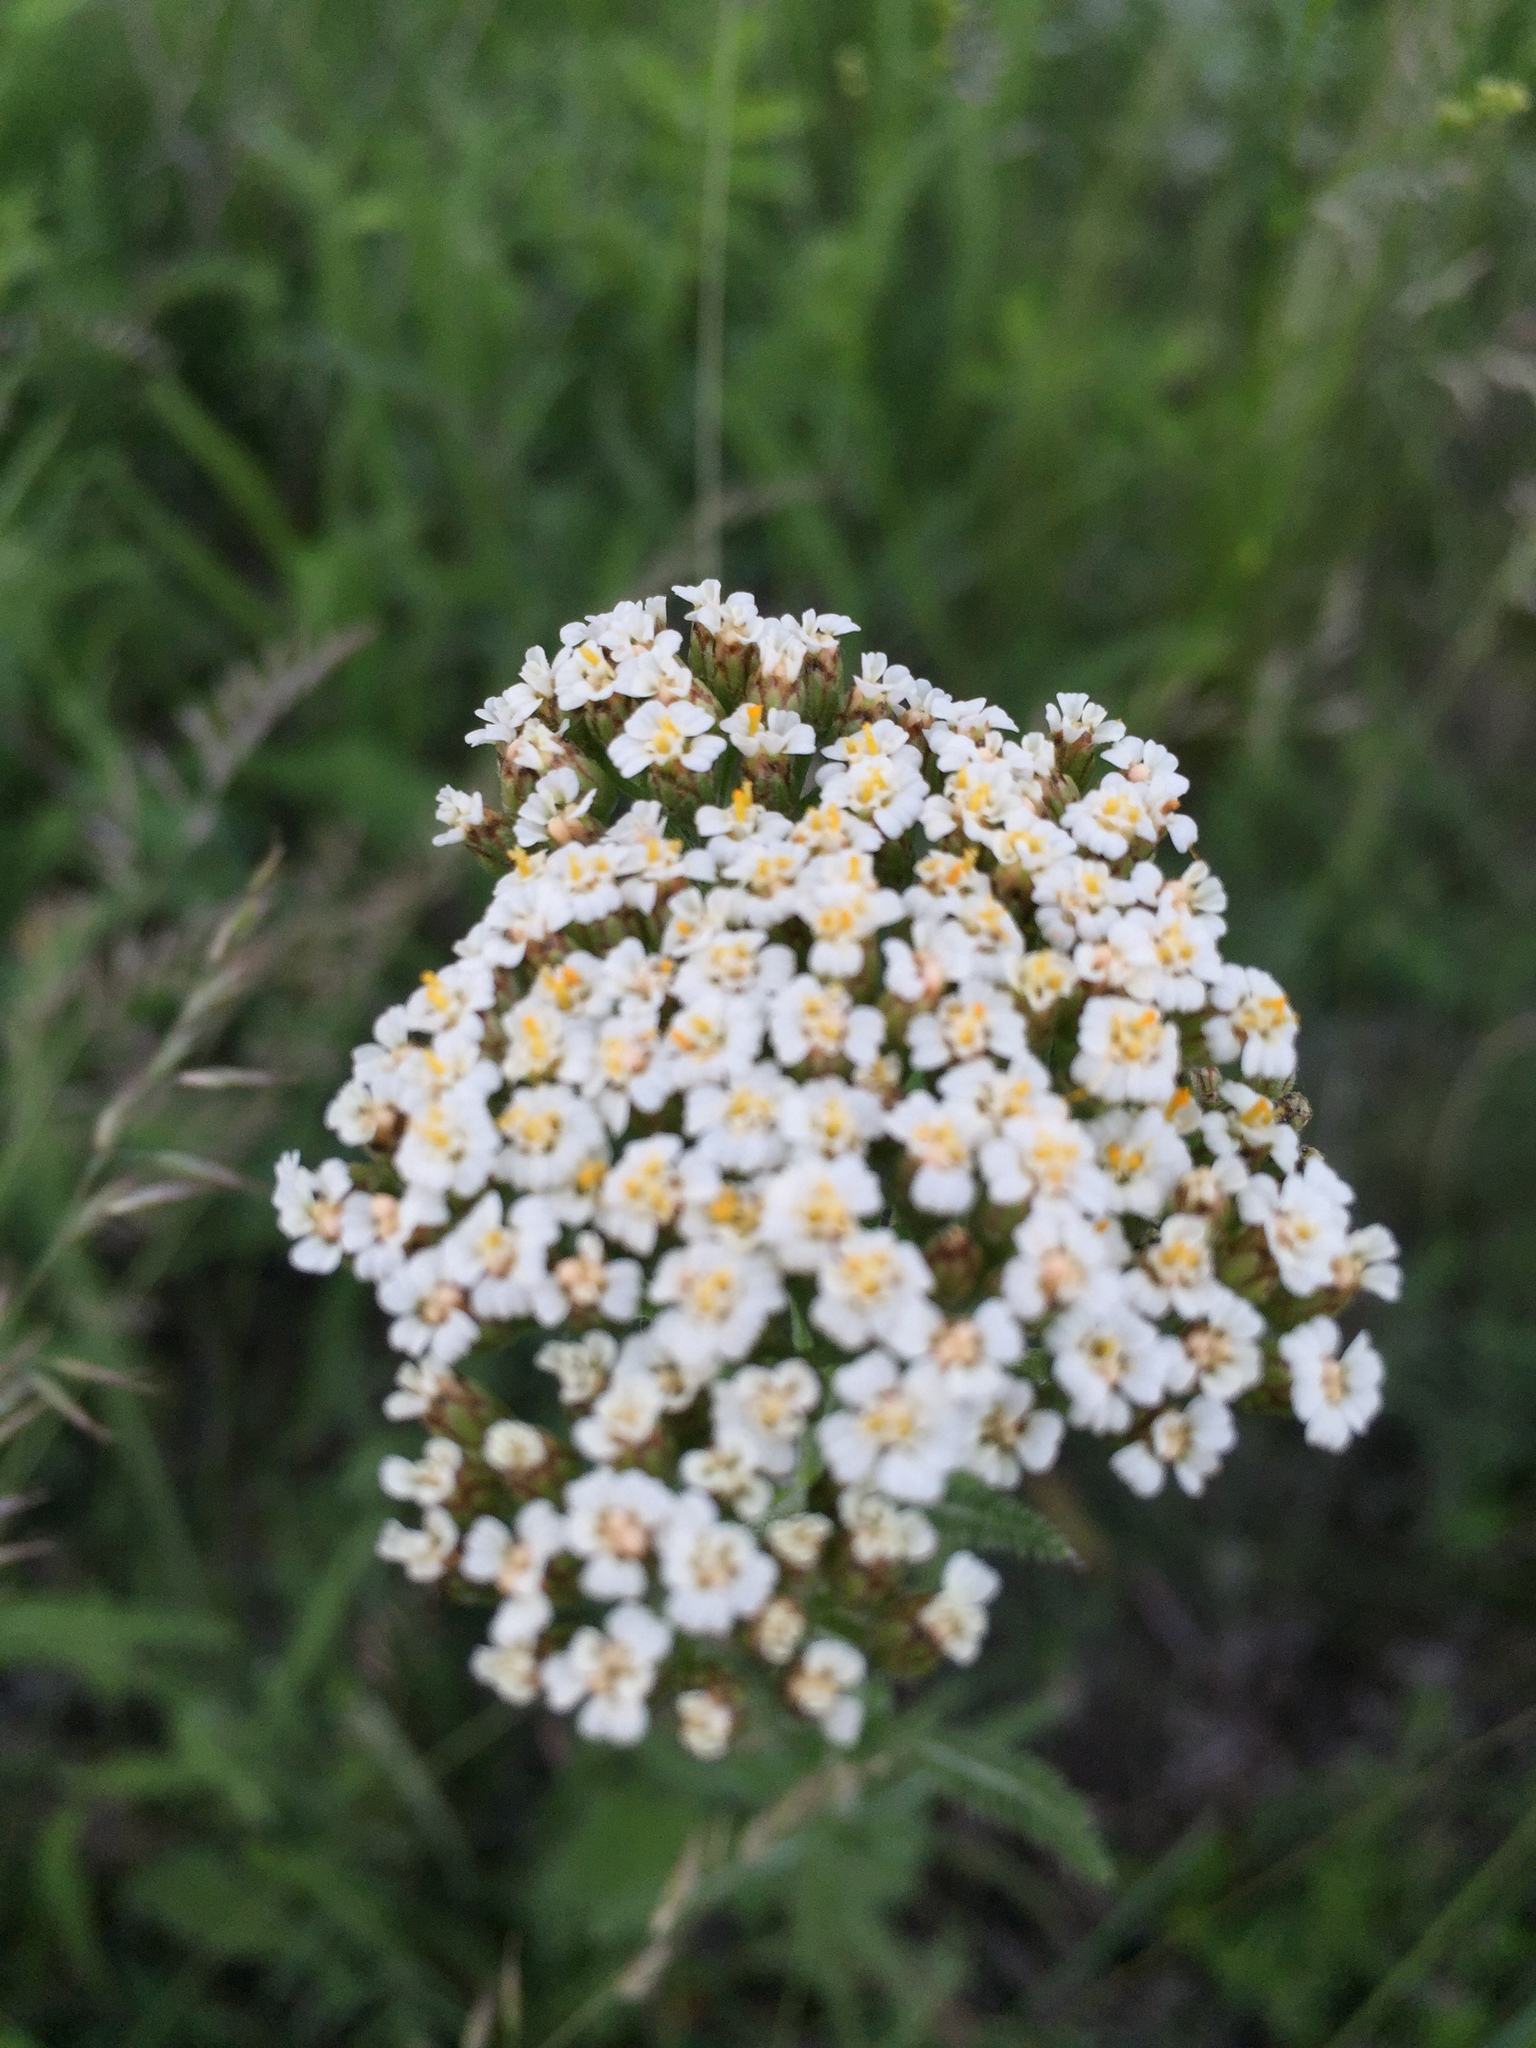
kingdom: Plantae
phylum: Tracheophyta
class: Magnoliopsida
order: Asterales
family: Asteraceae
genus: Achillea
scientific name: Achillea setacea
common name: Bristly yarrow
